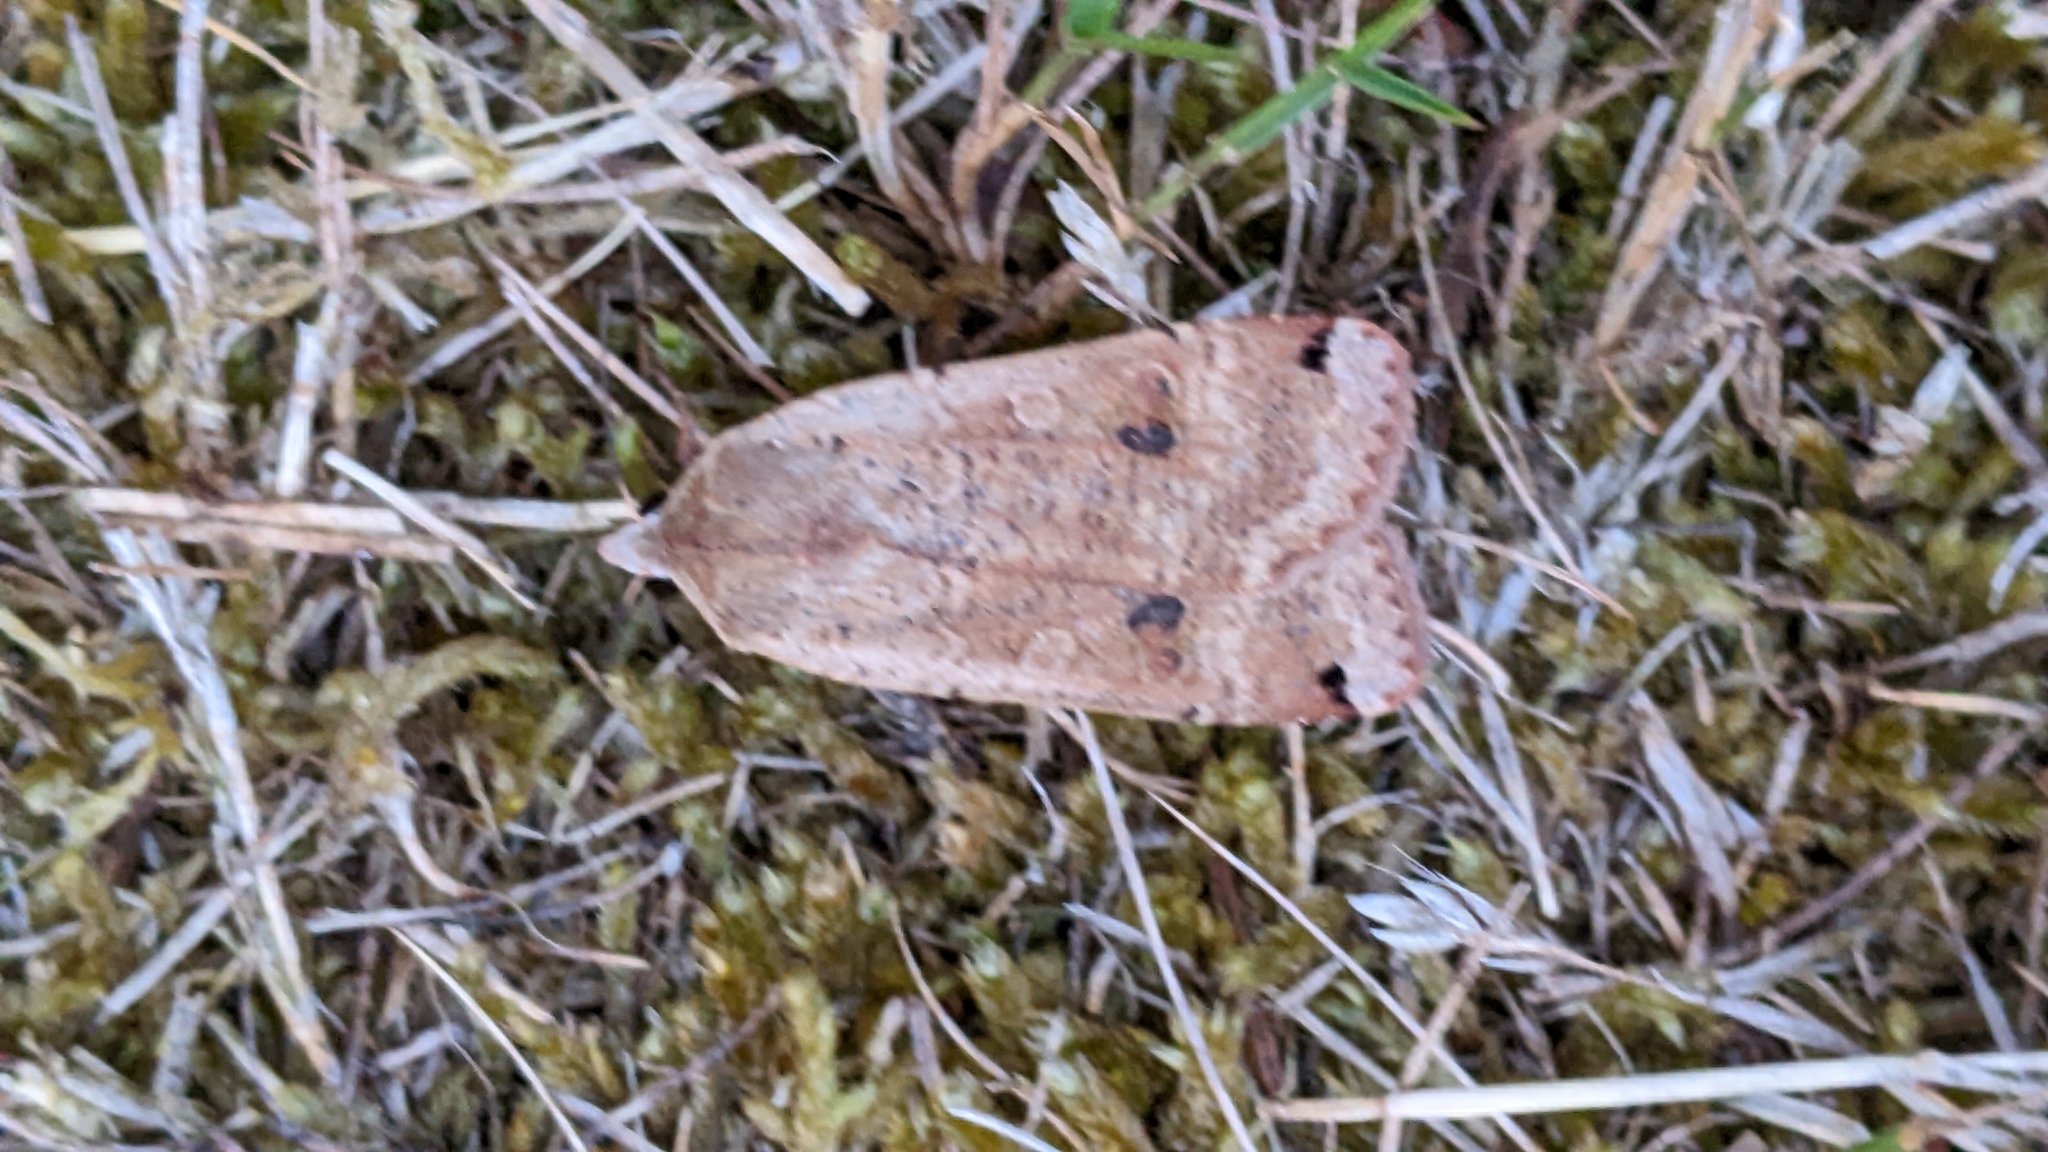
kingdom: Animalia
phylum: Arthropoda
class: Insecta
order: Lepidoptera
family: Noctuidae
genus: Noctua
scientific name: Noctua pronuba
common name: Large yellow underwing
